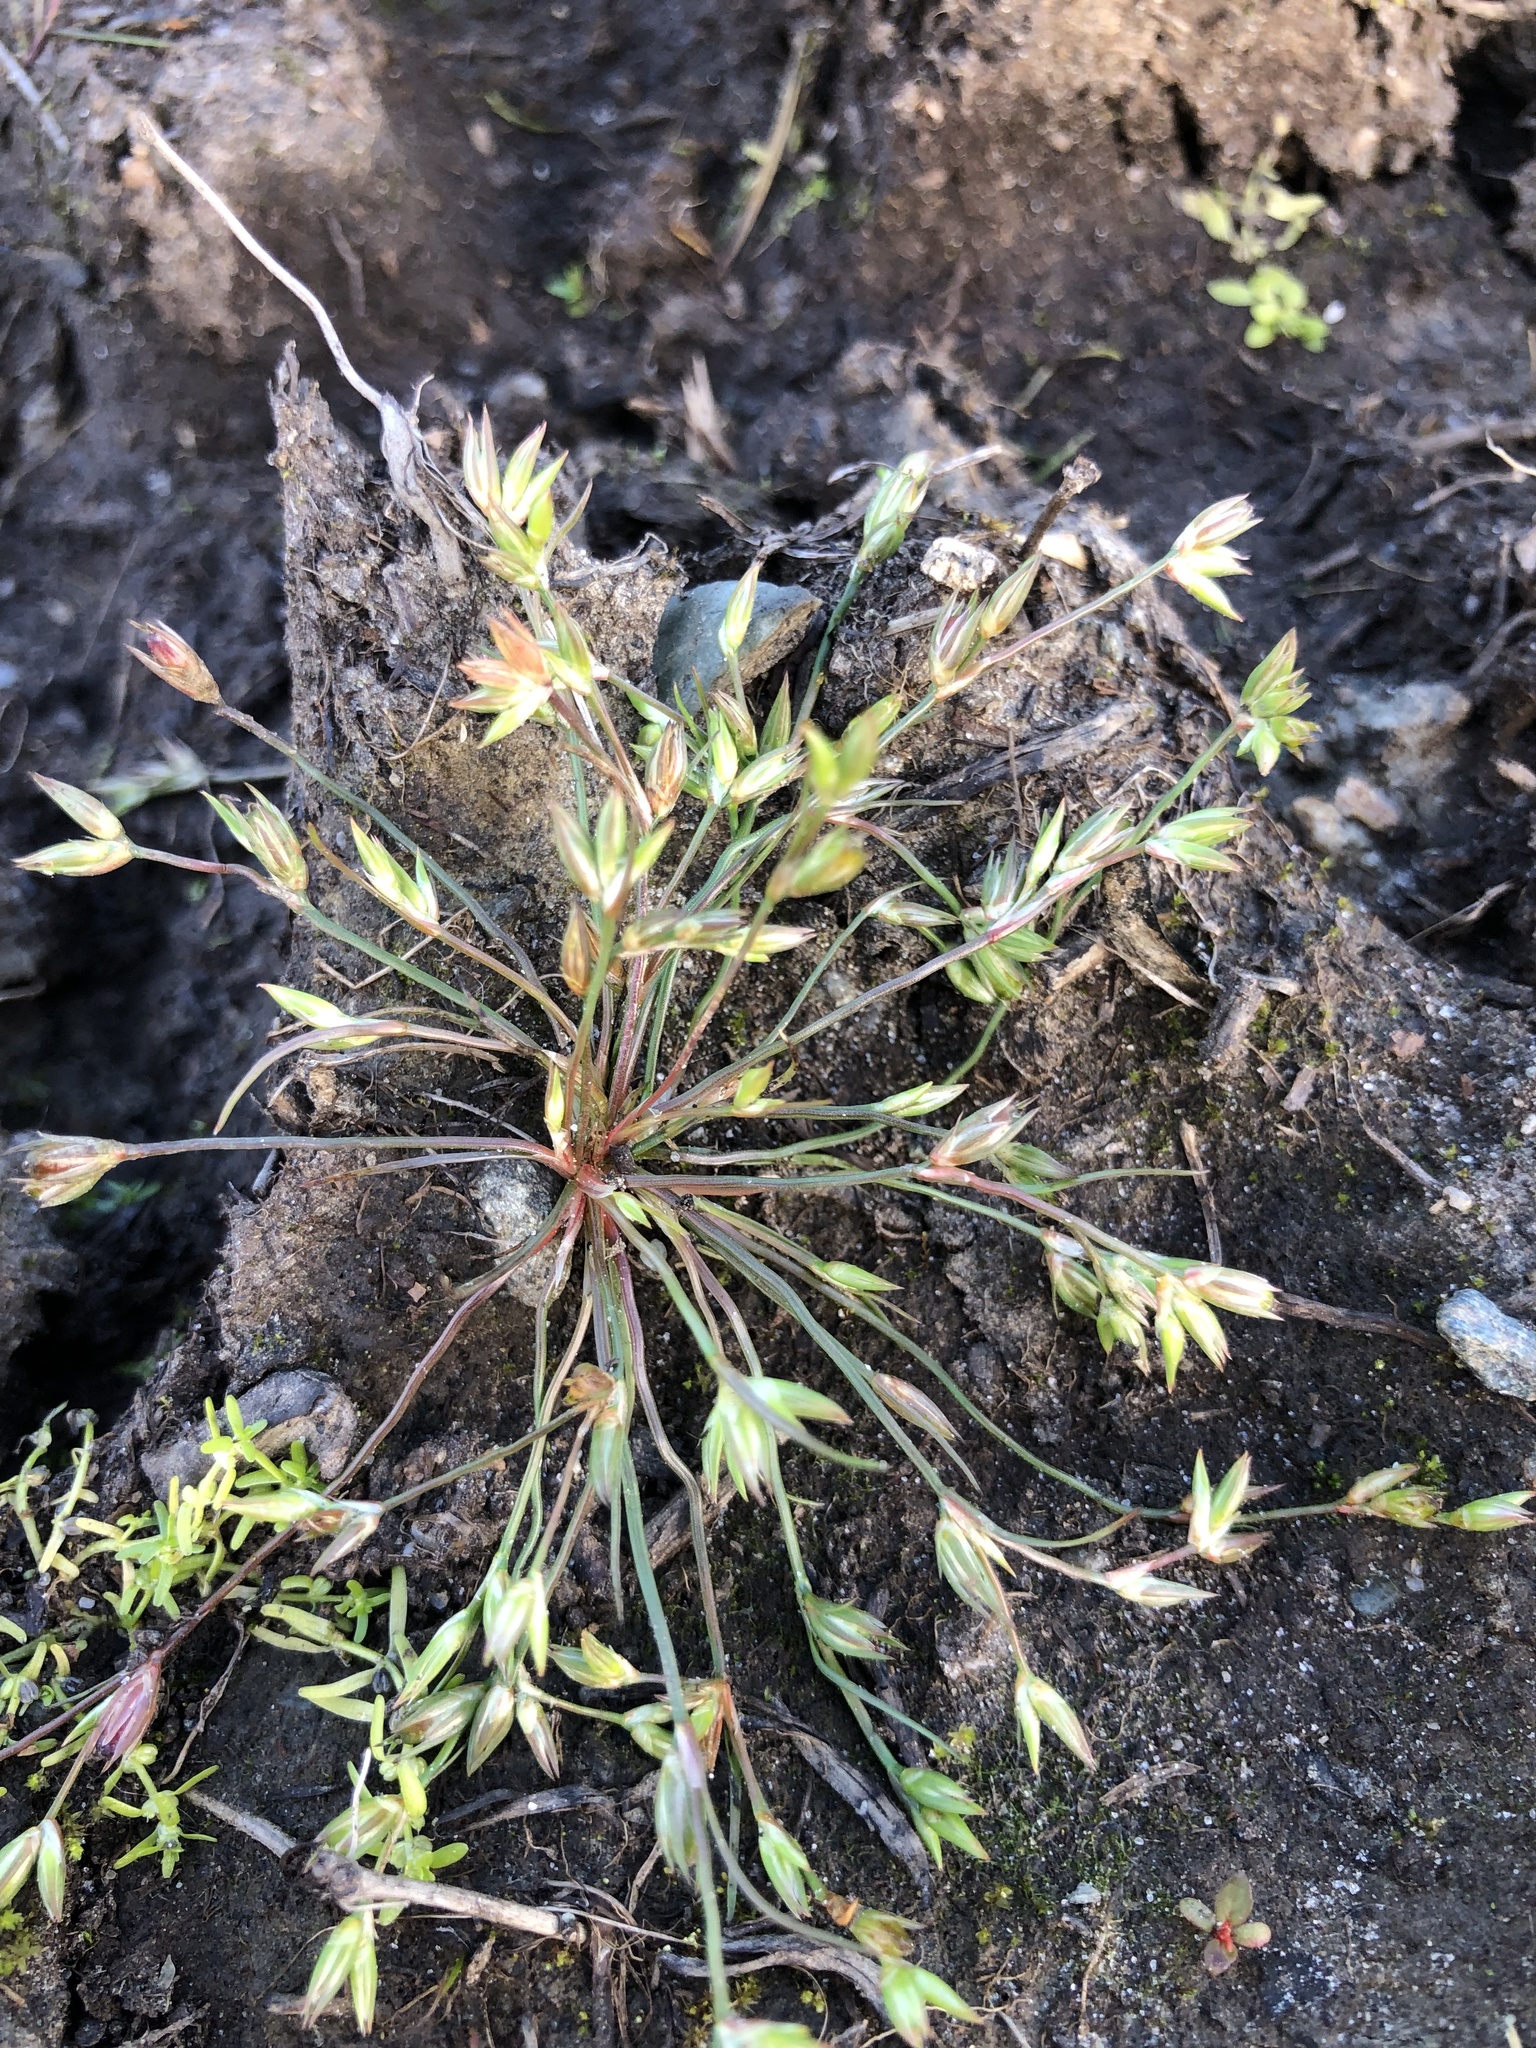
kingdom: Plantae
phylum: Tracheophyta
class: Liliopsida
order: Poales
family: Juncaceae
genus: Juncus
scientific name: Juncus bufonius
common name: Toad rush
